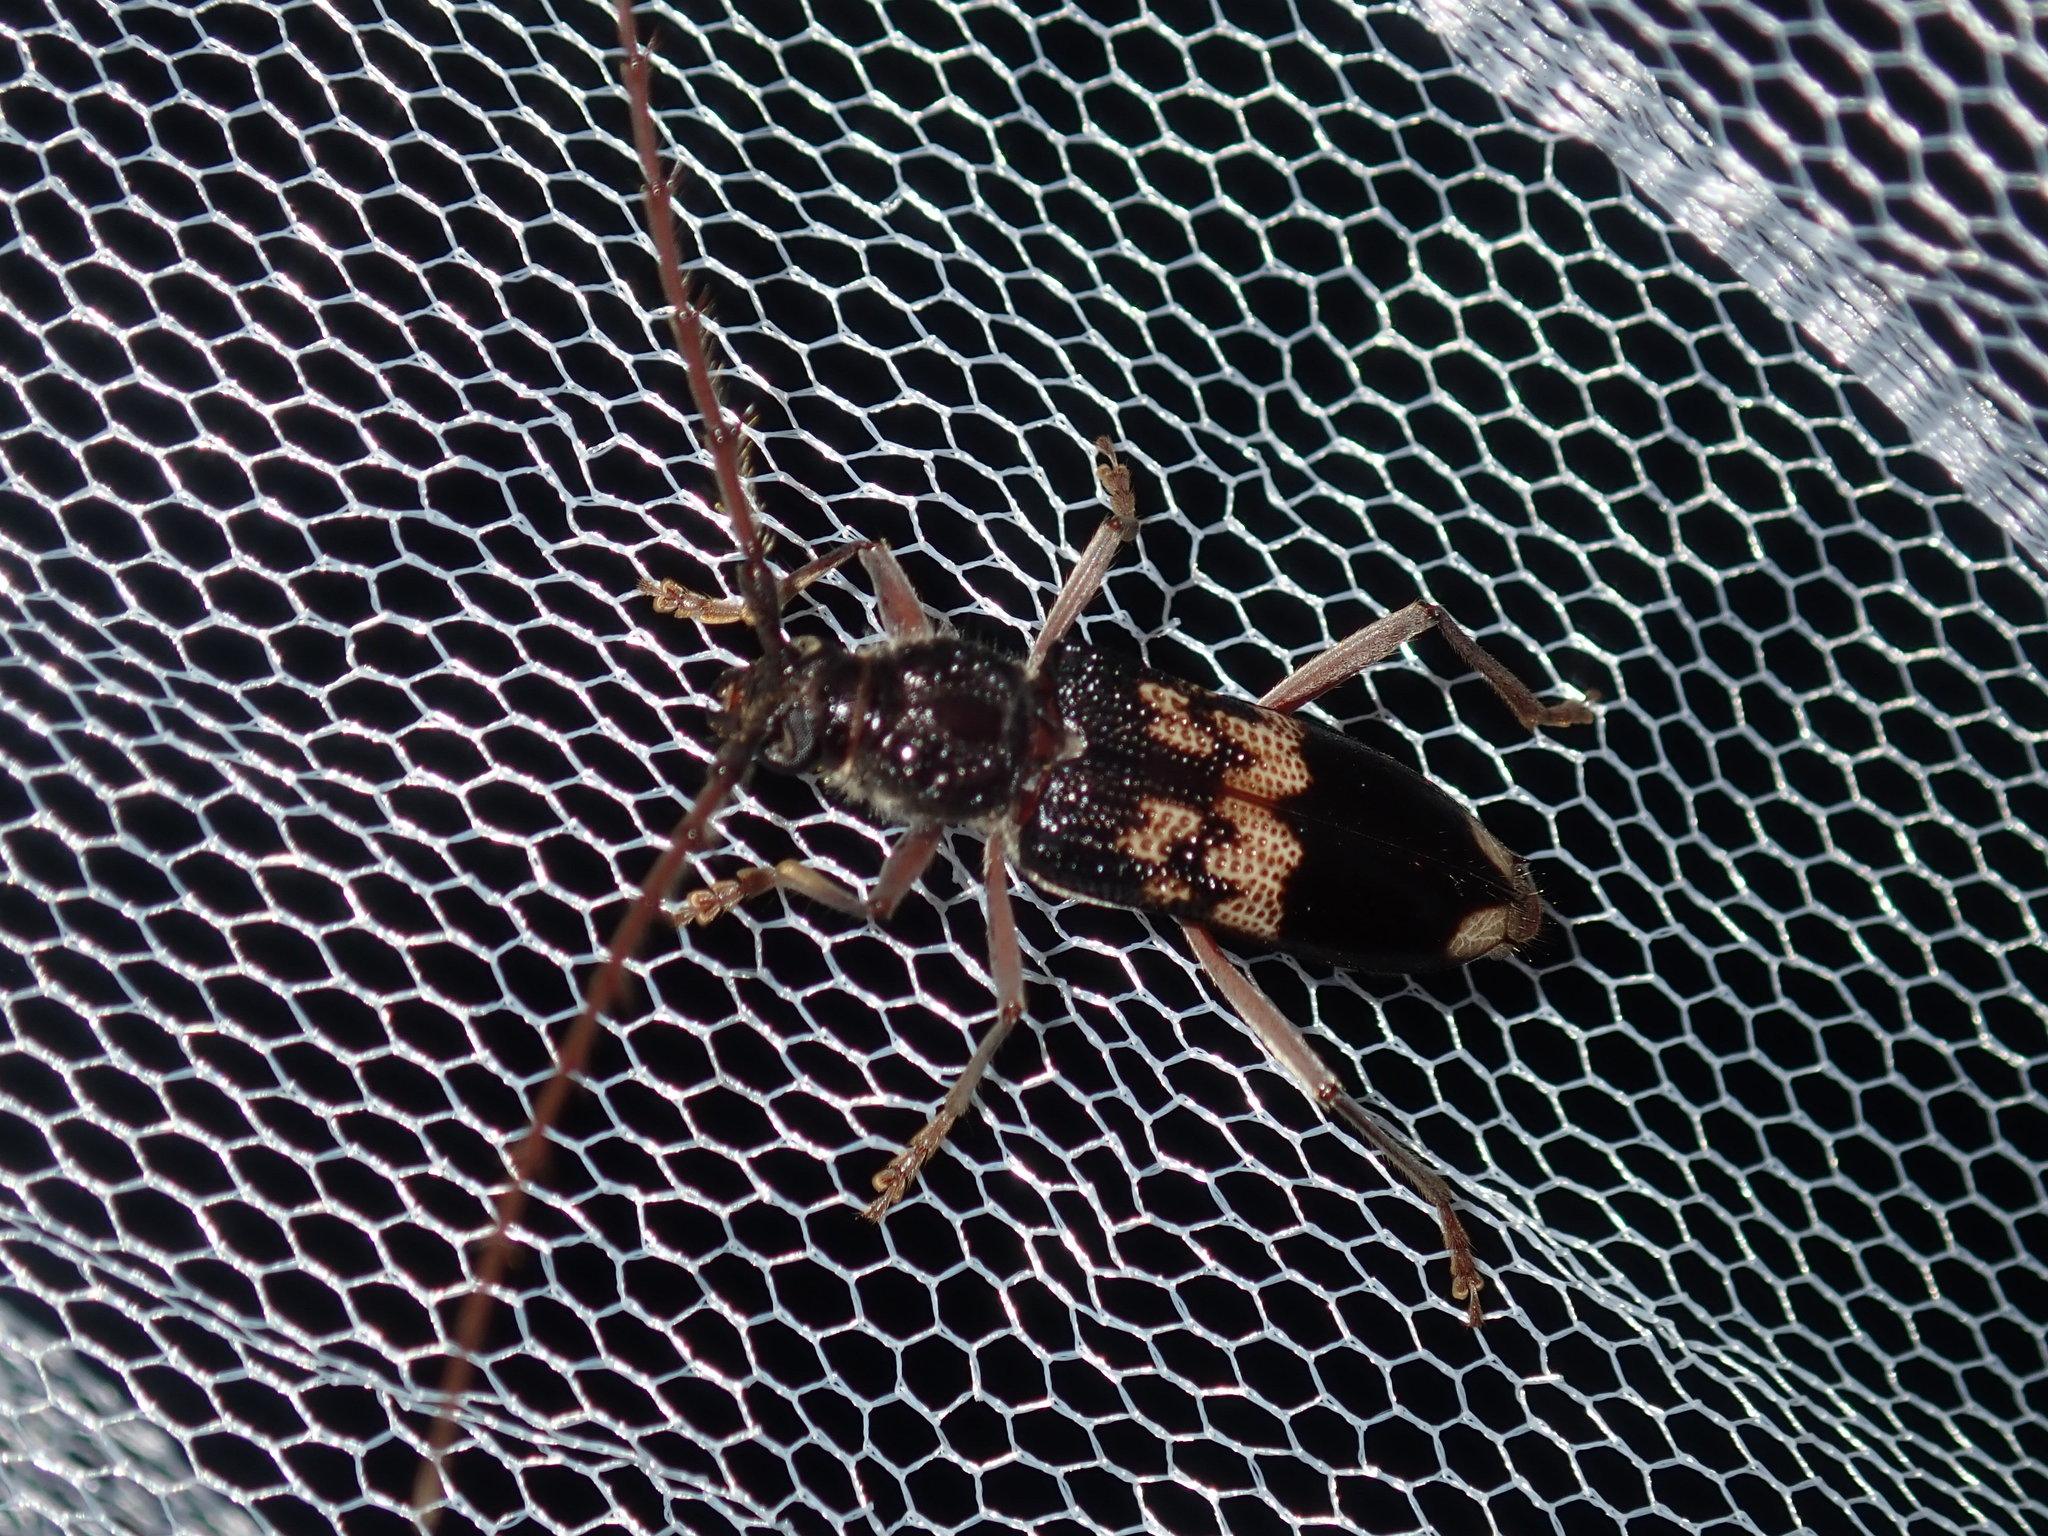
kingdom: Animalia
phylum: Arthropoda
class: Insecta
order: Coleoptera
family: Cerambycidae
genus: Phoracantha
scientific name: Phoracantha semipunctata
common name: Eucalyptus longhorn borer
